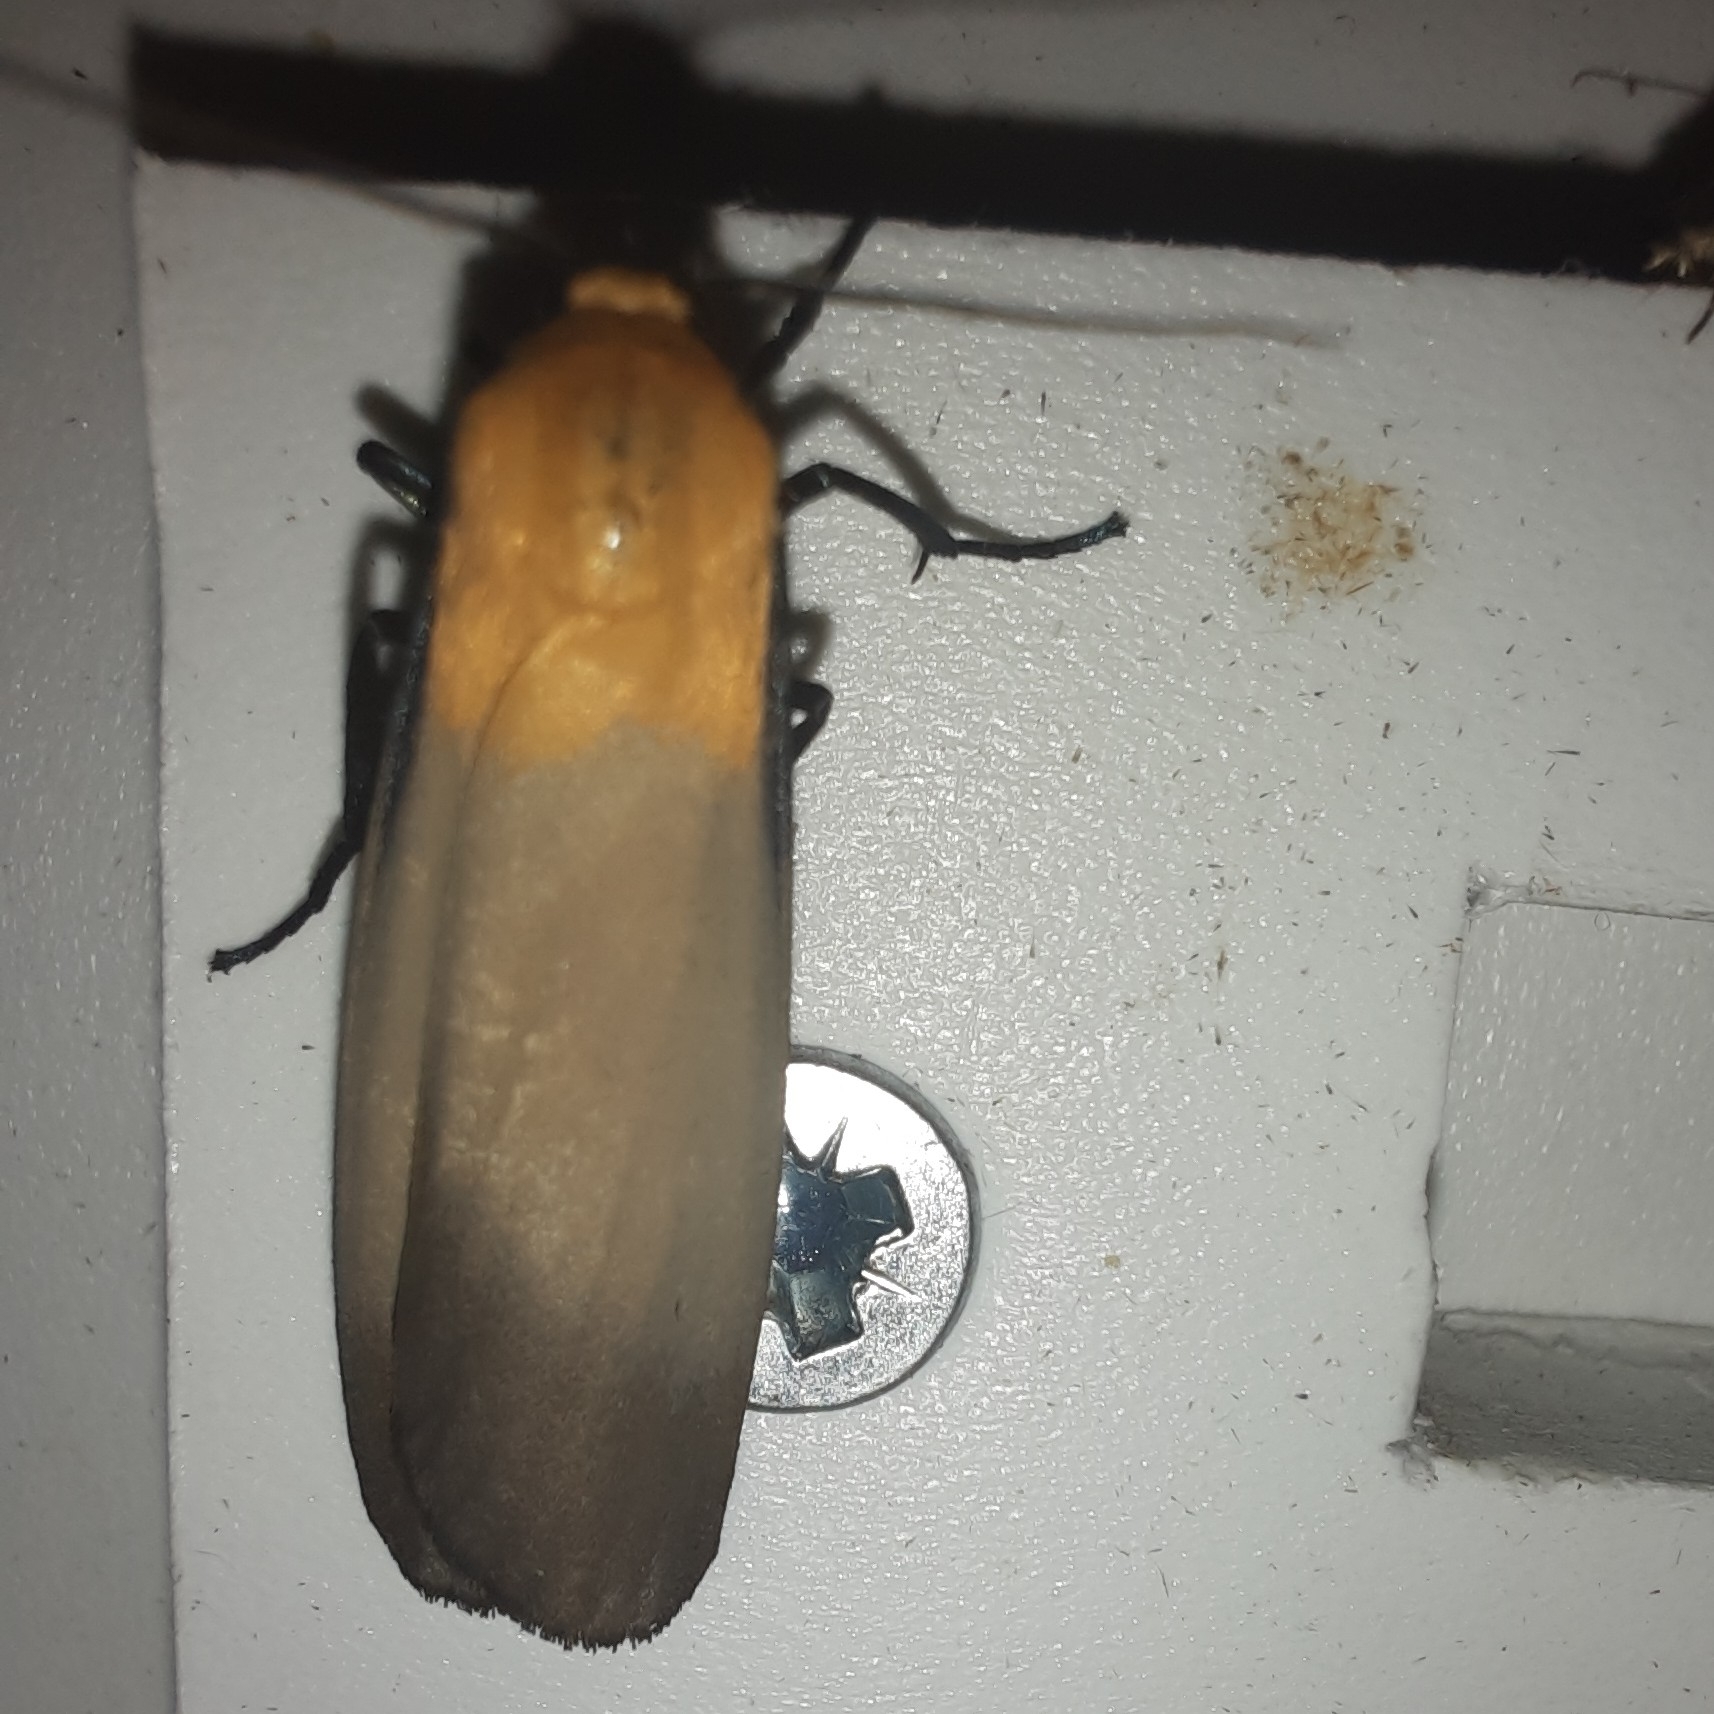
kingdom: Animalia
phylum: Arthropoda
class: Insecta
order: Lepidoptera
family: Erebidae
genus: Lithosia
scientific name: Lithosia quadra
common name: Four-spotted footman
